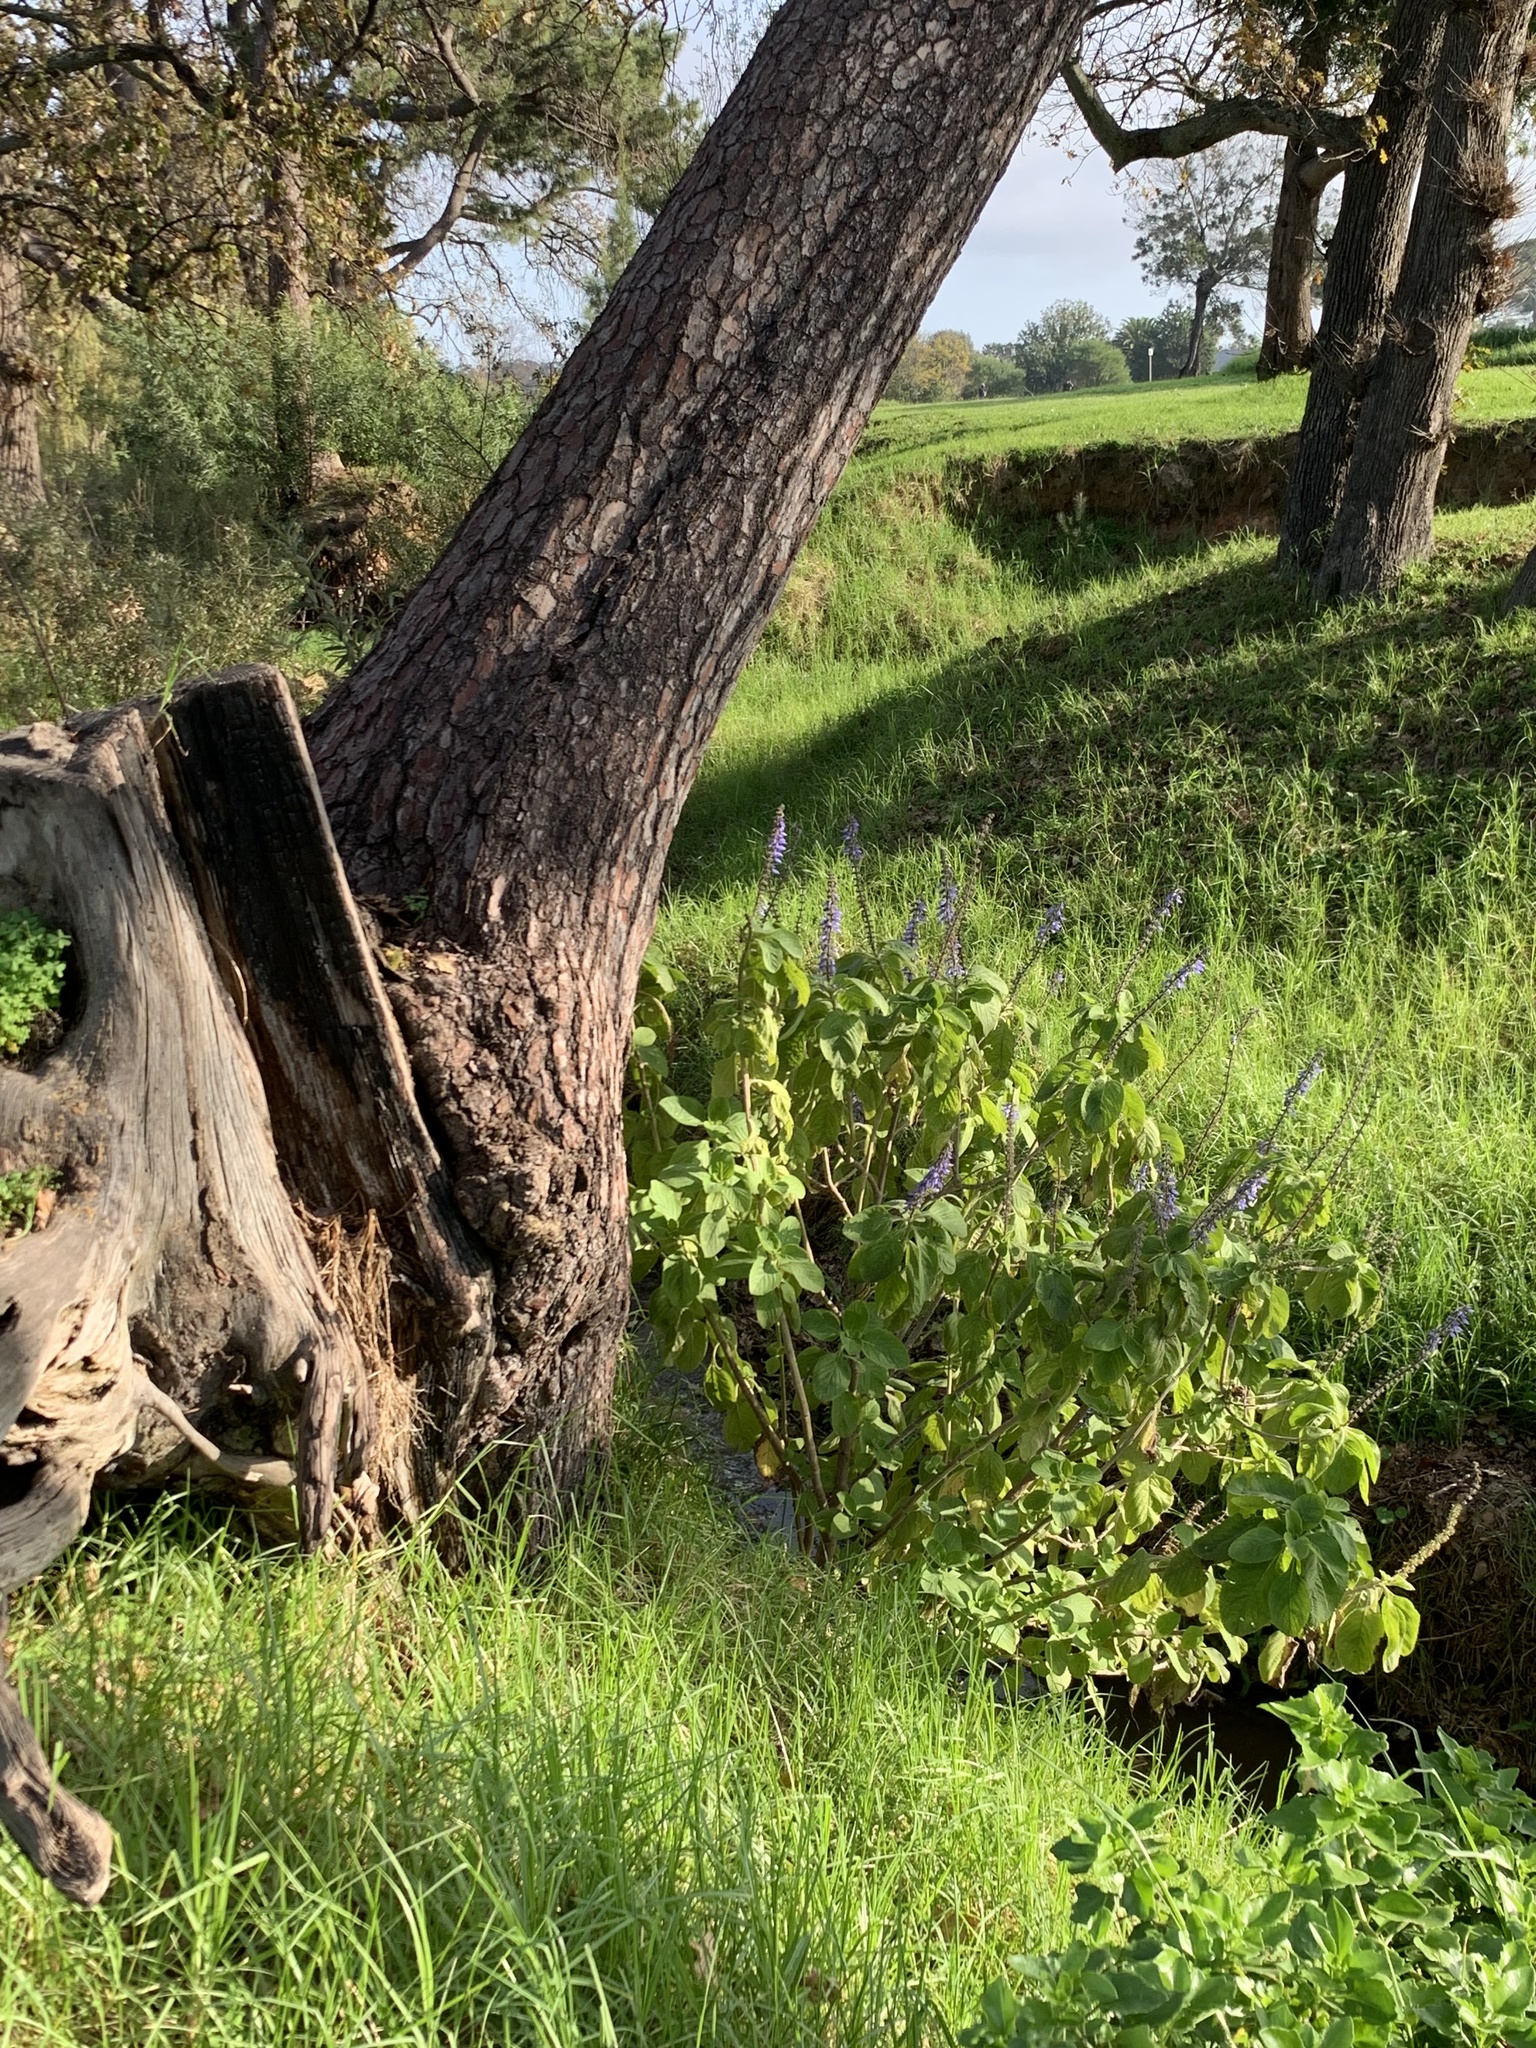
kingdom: Plantae
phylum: Tracheophyta
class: Magnoliopsida
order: Lamiales
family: Lamiaceae
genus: Coleus
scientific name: Coleus barbatus
